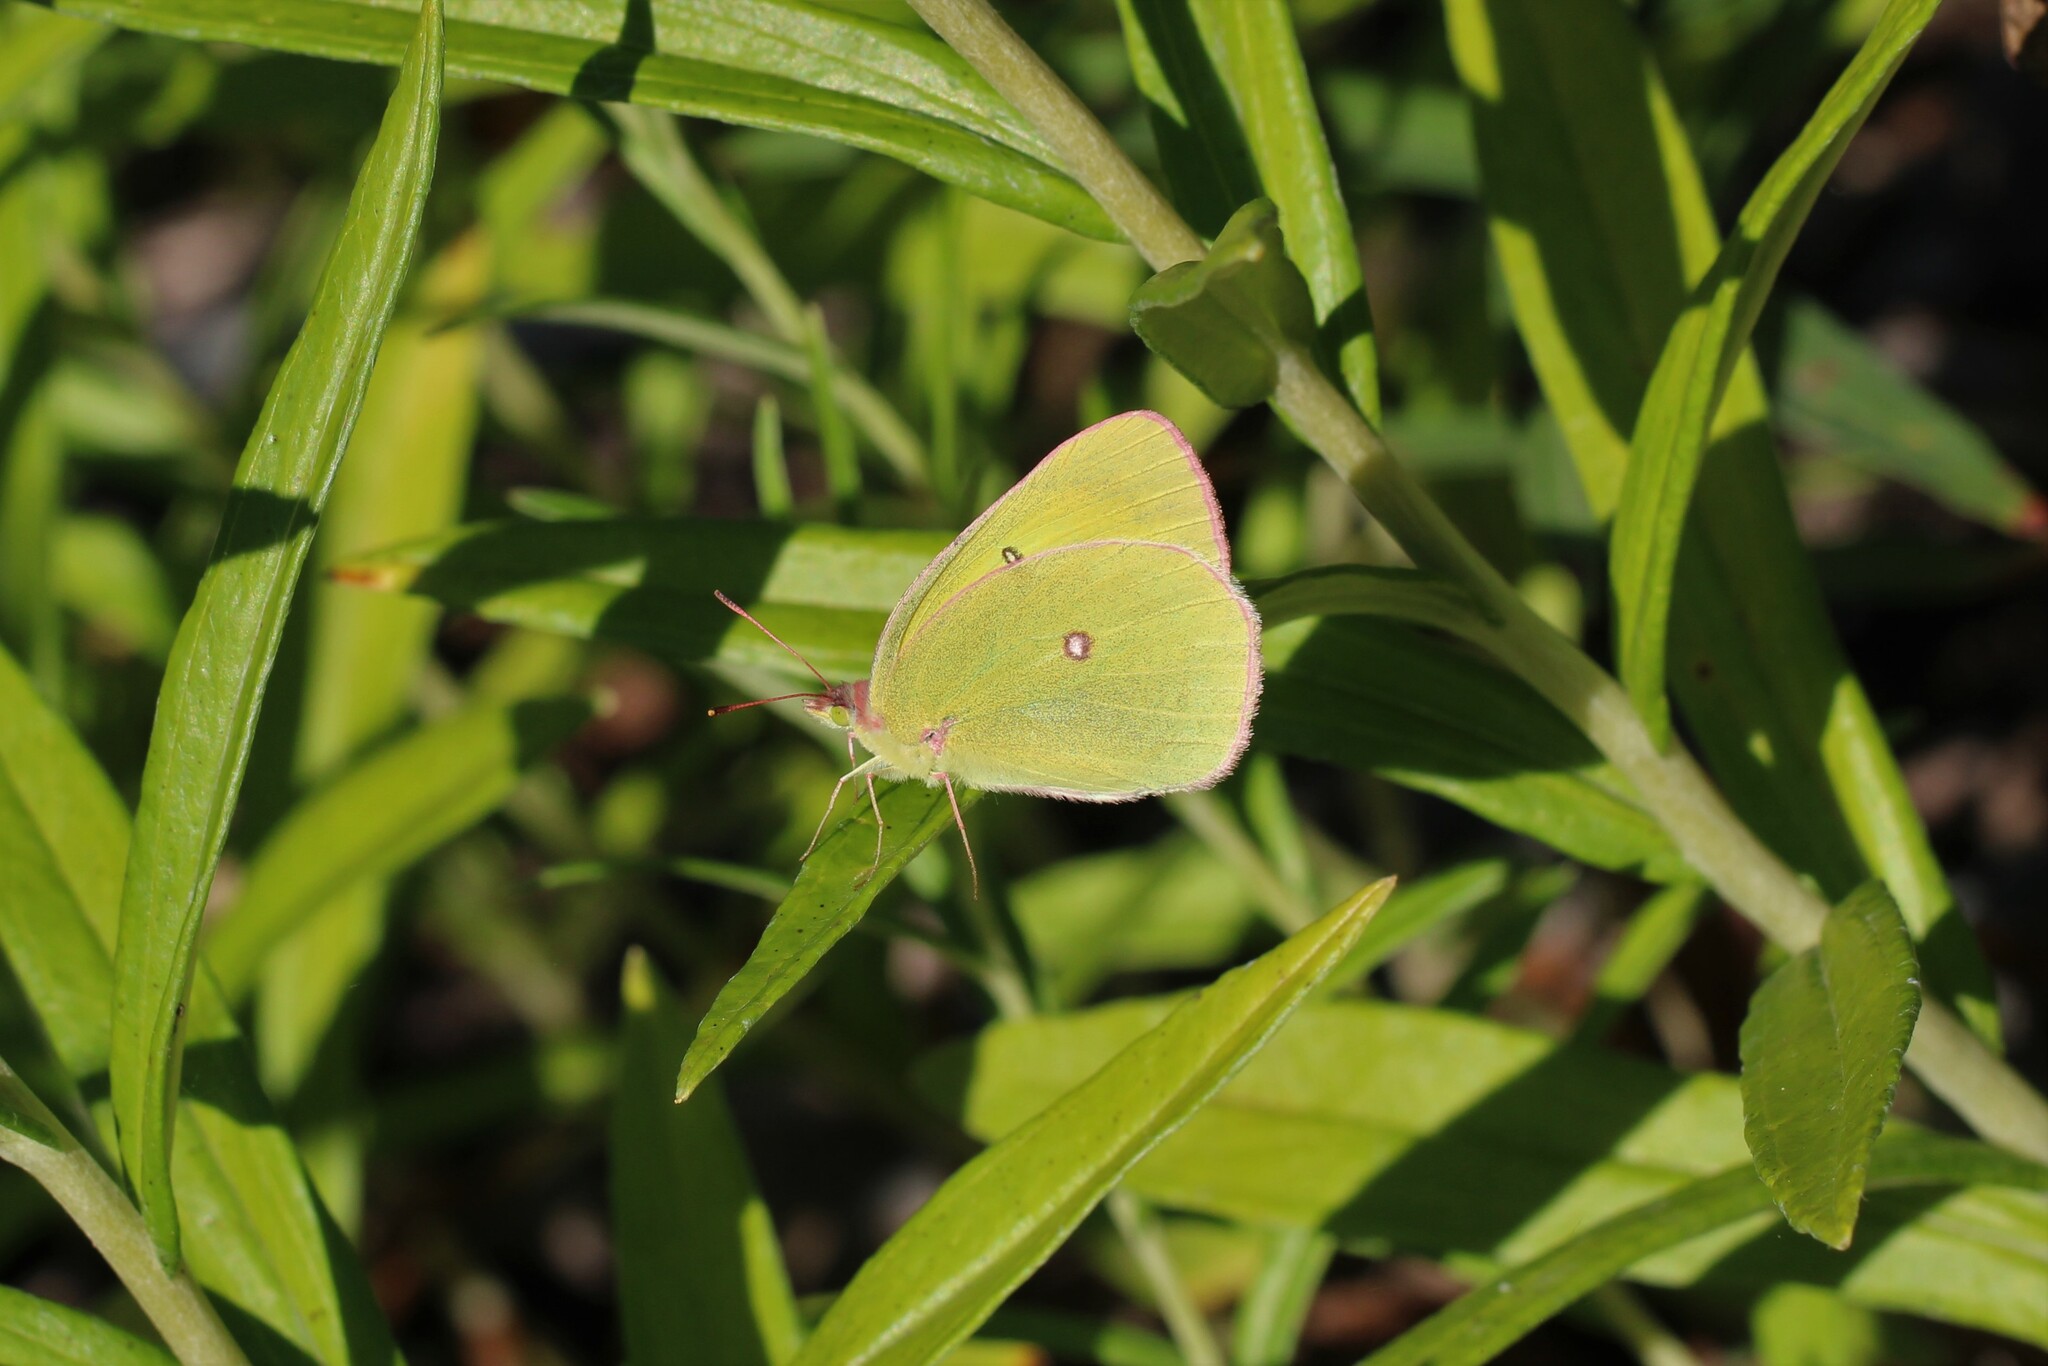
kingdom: Animalia
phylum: Arthropoda
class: Insecta
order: Lepidoptera
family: Pieridae
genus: Colias
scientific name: Colias interior
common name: Pink-edged sulphur
